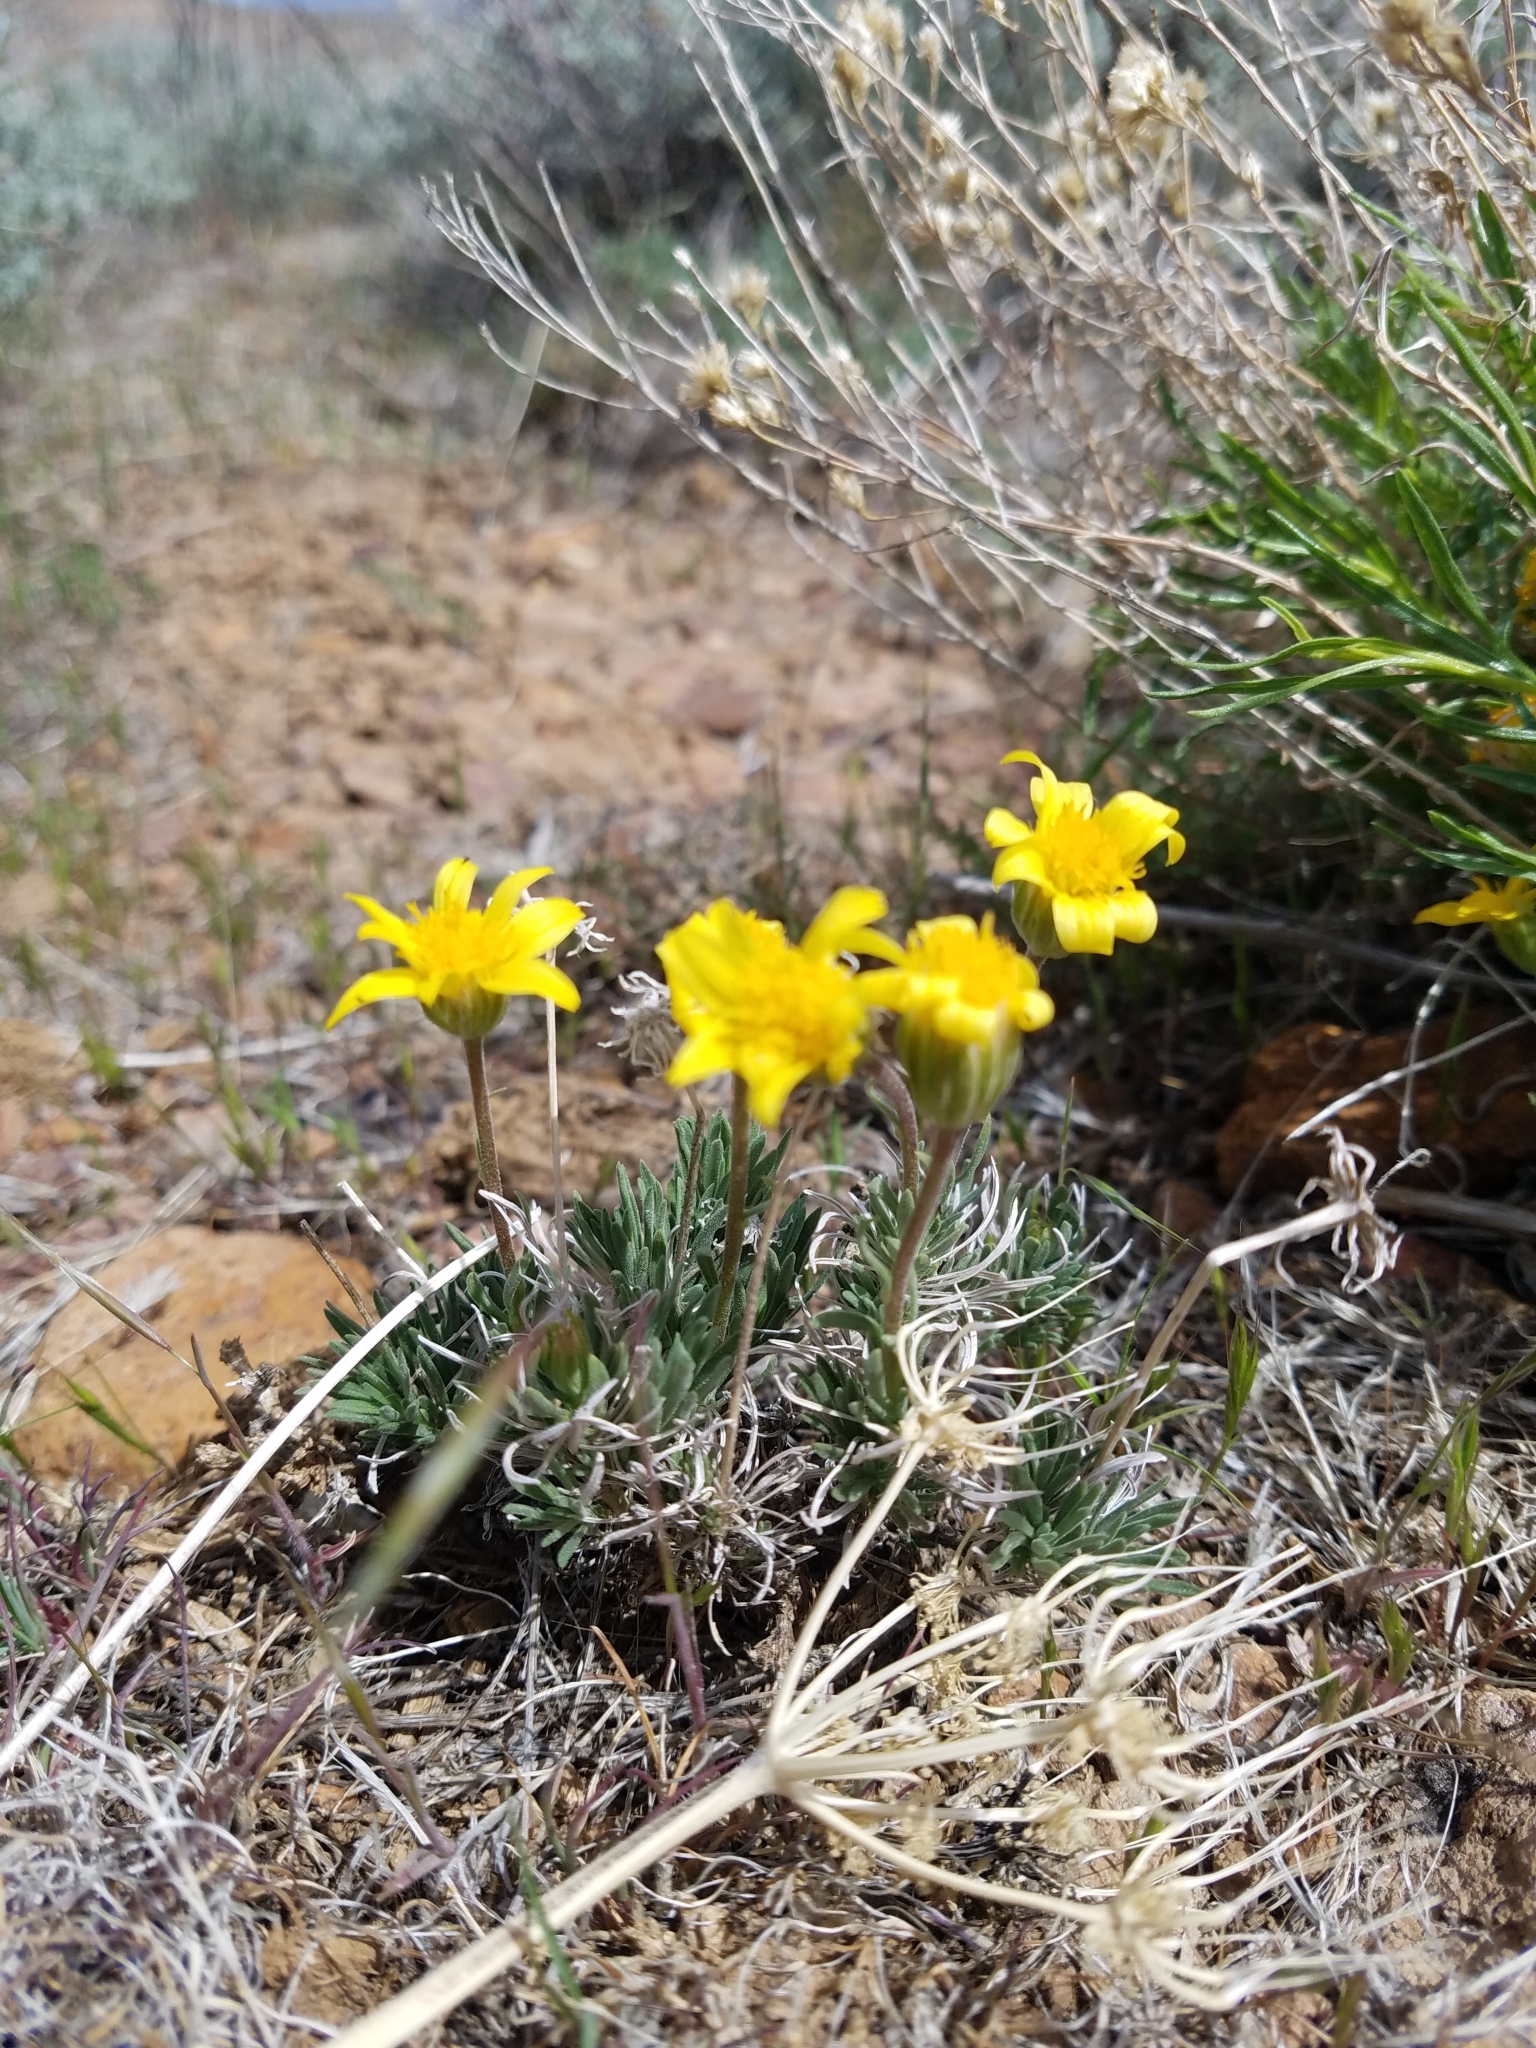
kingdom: Plantae
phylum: Tracheophyta
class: Magnoliopsida
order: Asterales
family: Asteraceae
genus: Nestotus
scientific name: Nestotus stenophyllus
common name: Narrow-leaf mock goldenweed
